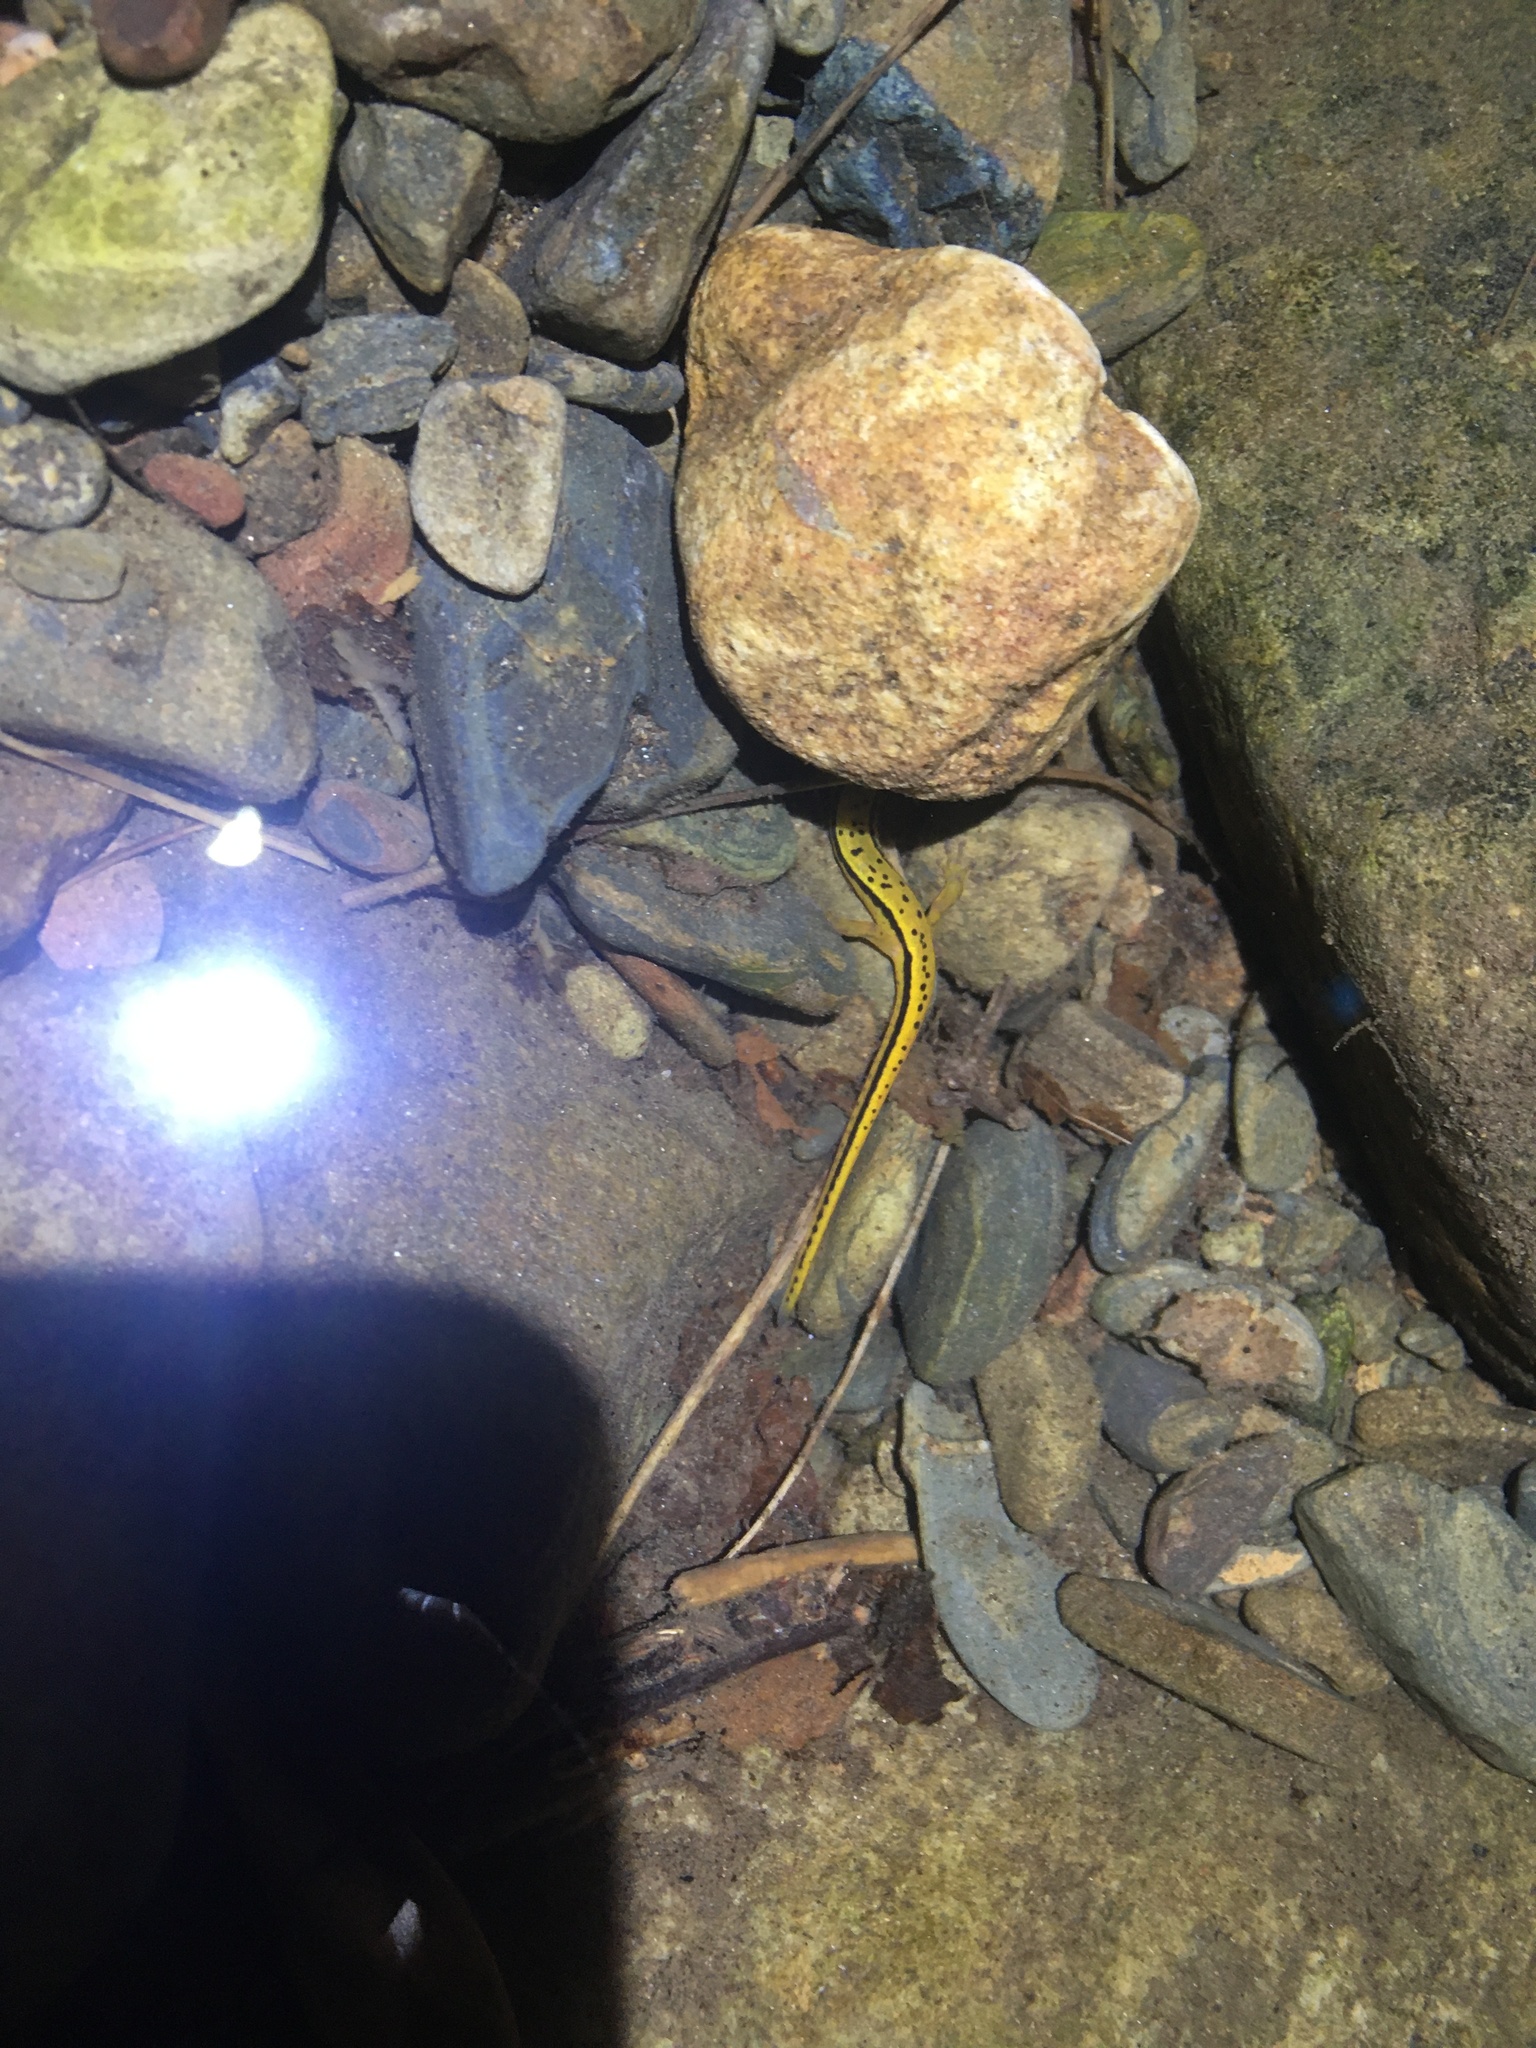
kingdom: Animalia
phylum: Chordata
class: Amphibia
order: Caudata
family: Plethodontidae
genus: Eurycea
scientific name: Eurycea wilderae
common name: Blue ridge two-lined salamander
